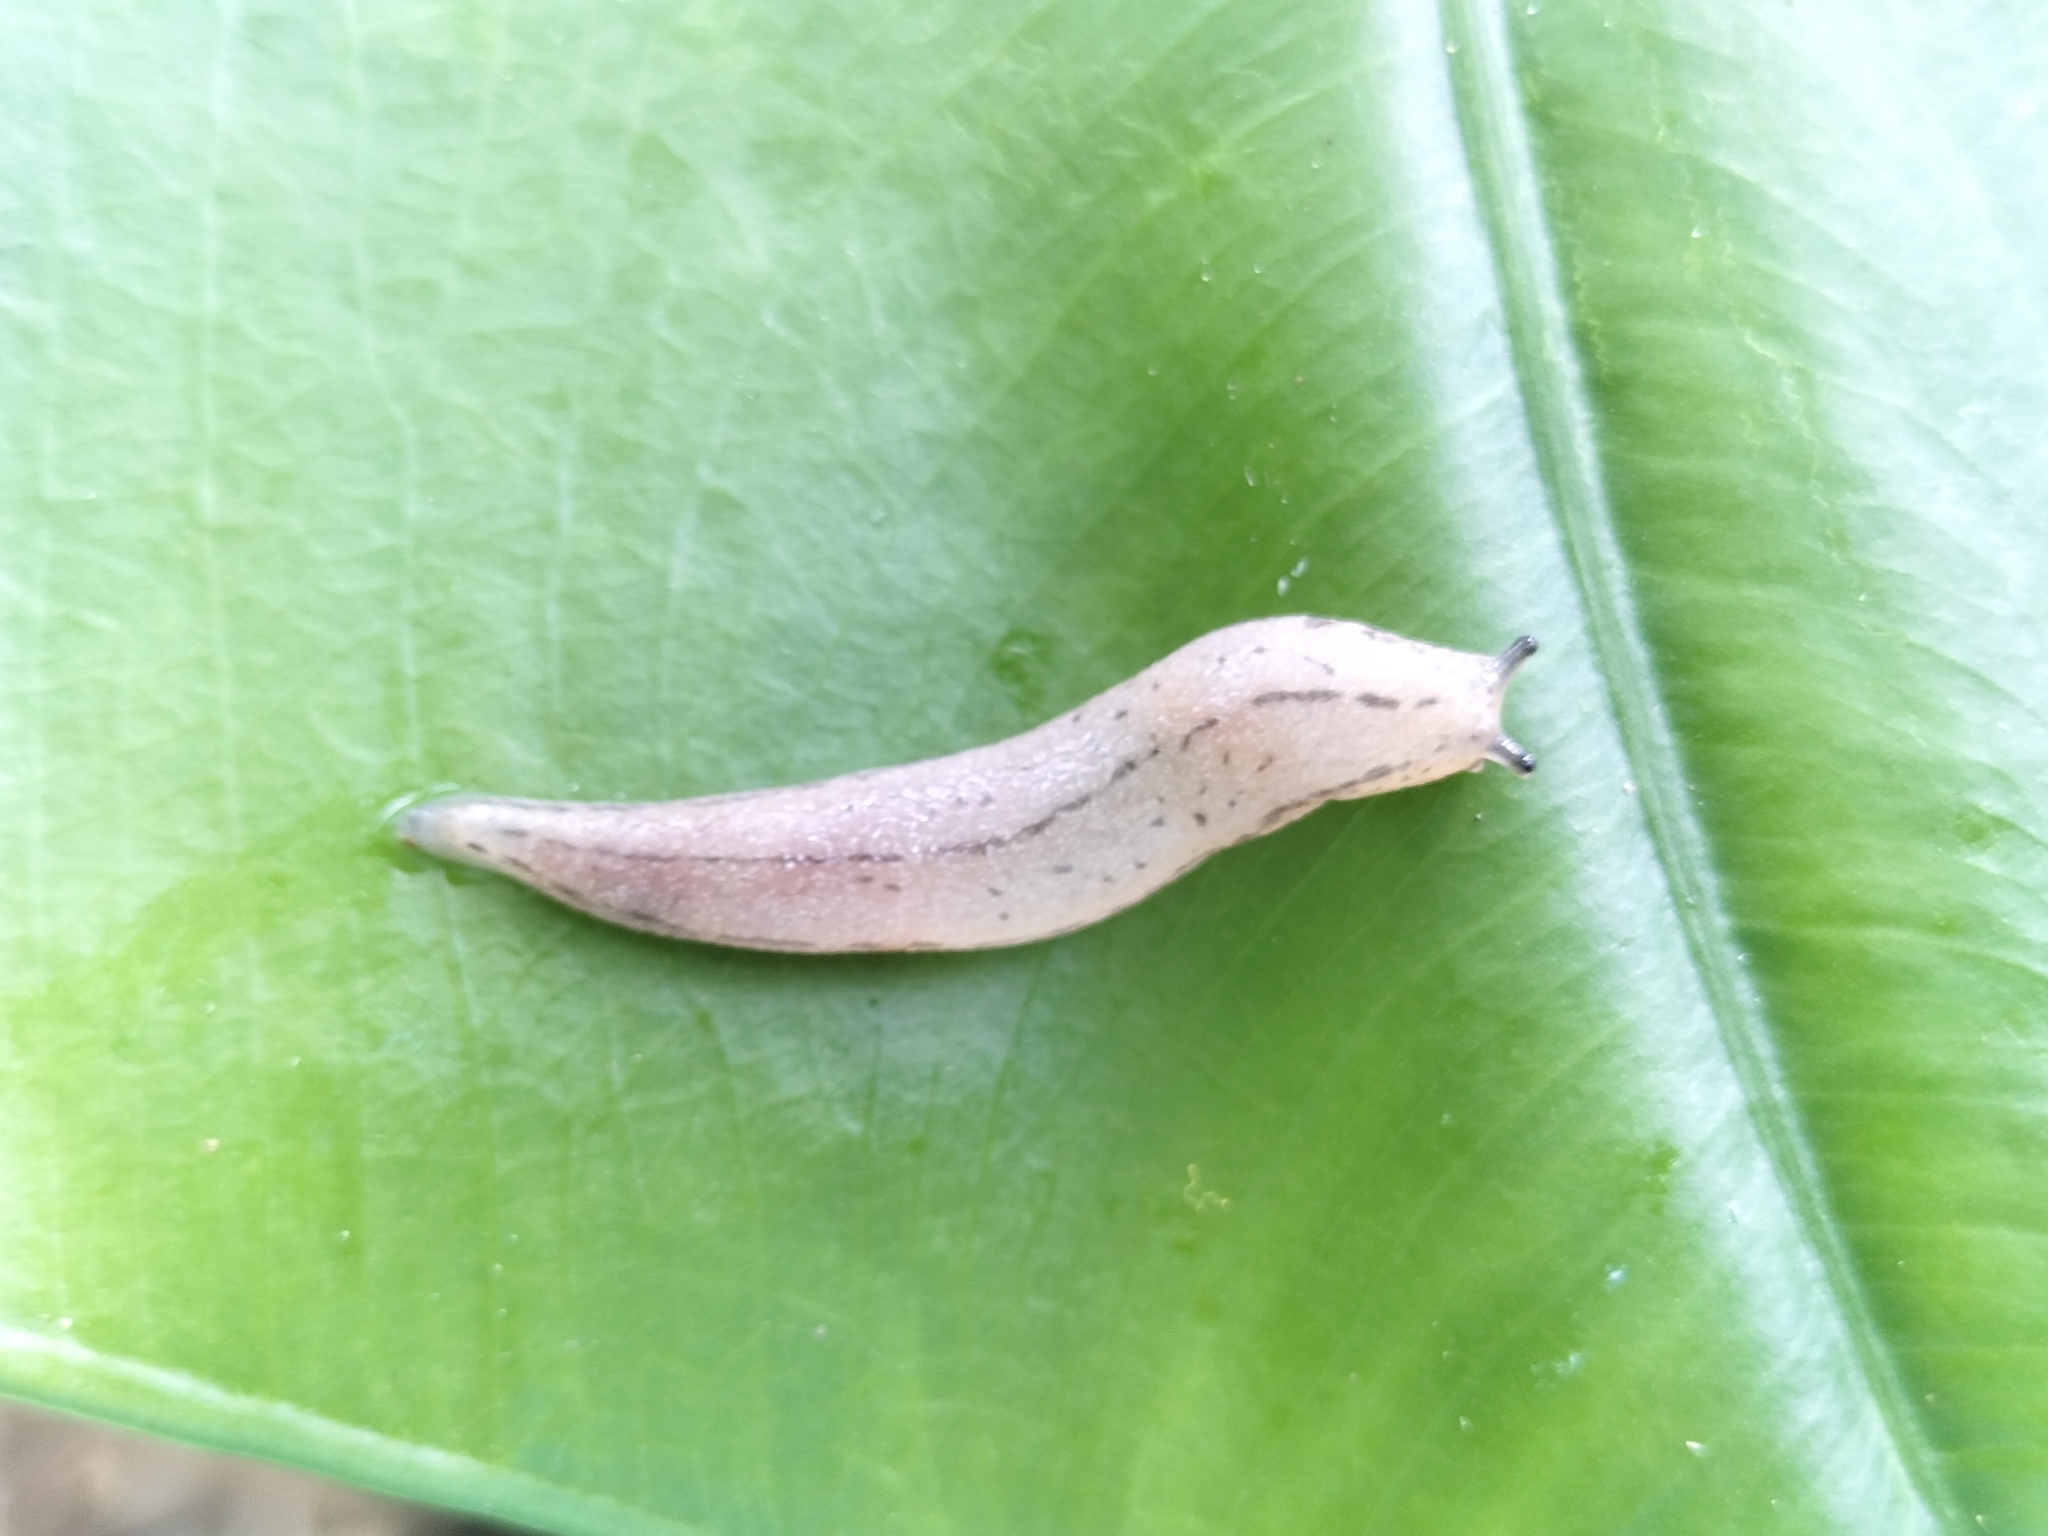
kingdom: Animalia
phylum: Mollusca
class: Gastropoda
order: Stylommatophora
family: Philomycidae
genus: Meghimatium
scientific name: Meghimatium bilineatum
